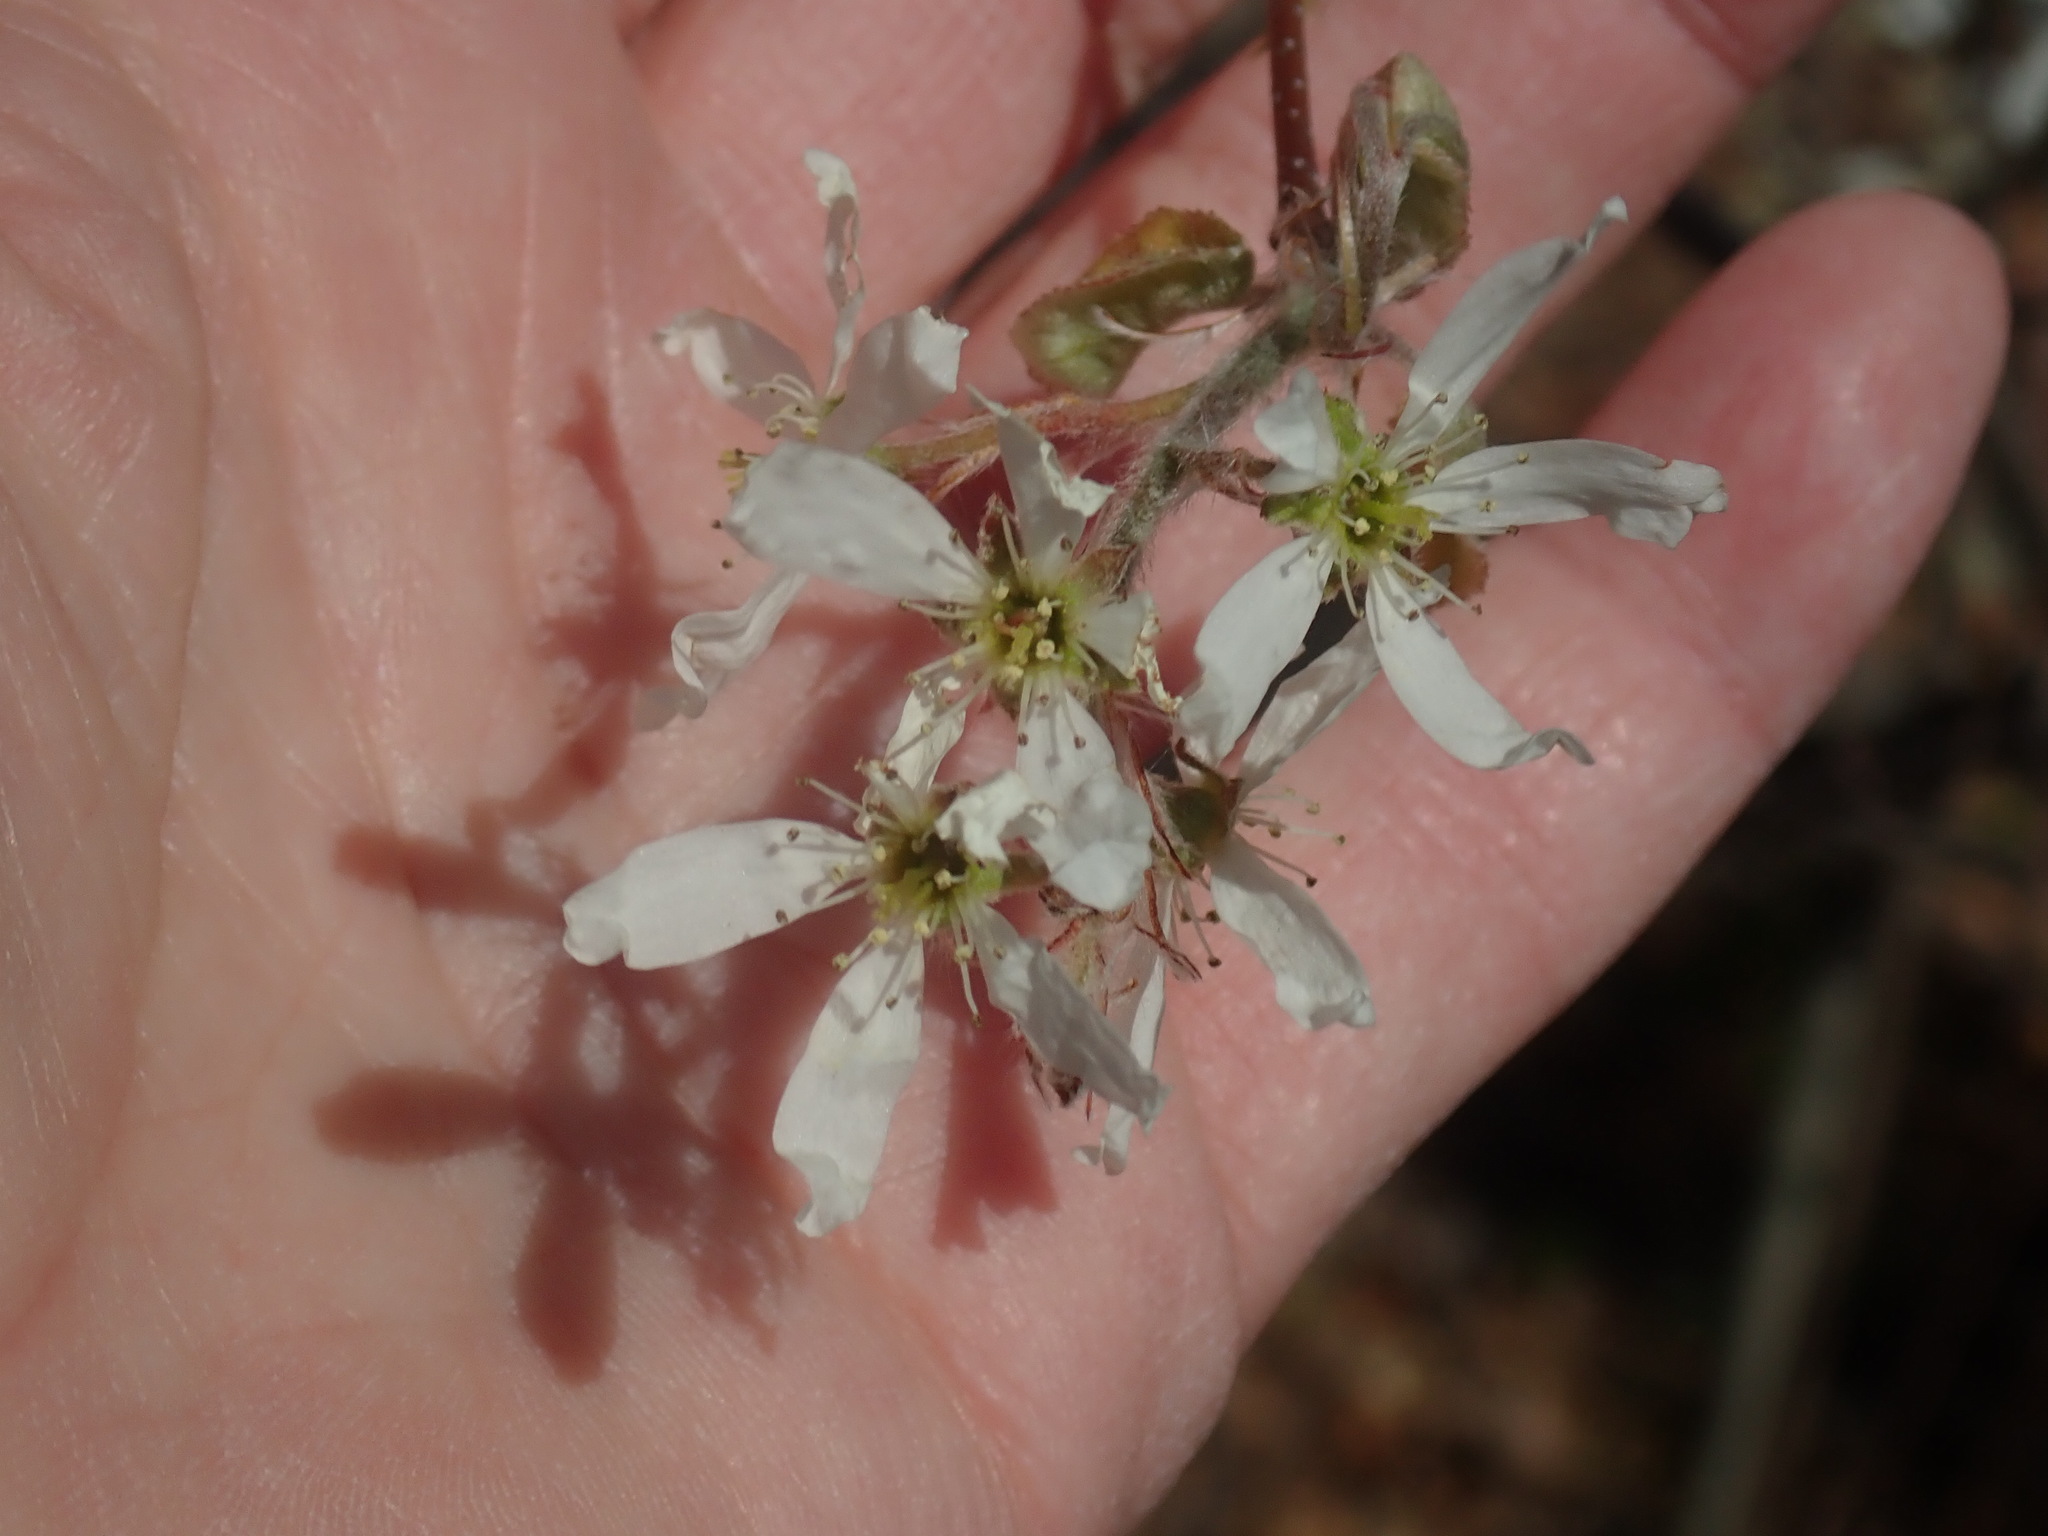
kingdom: Plantae
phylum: Tracheophyta
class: Magnoliopsida
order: Rosales
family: Rosaceae
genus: Amelanchier
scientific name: Amelanchier
